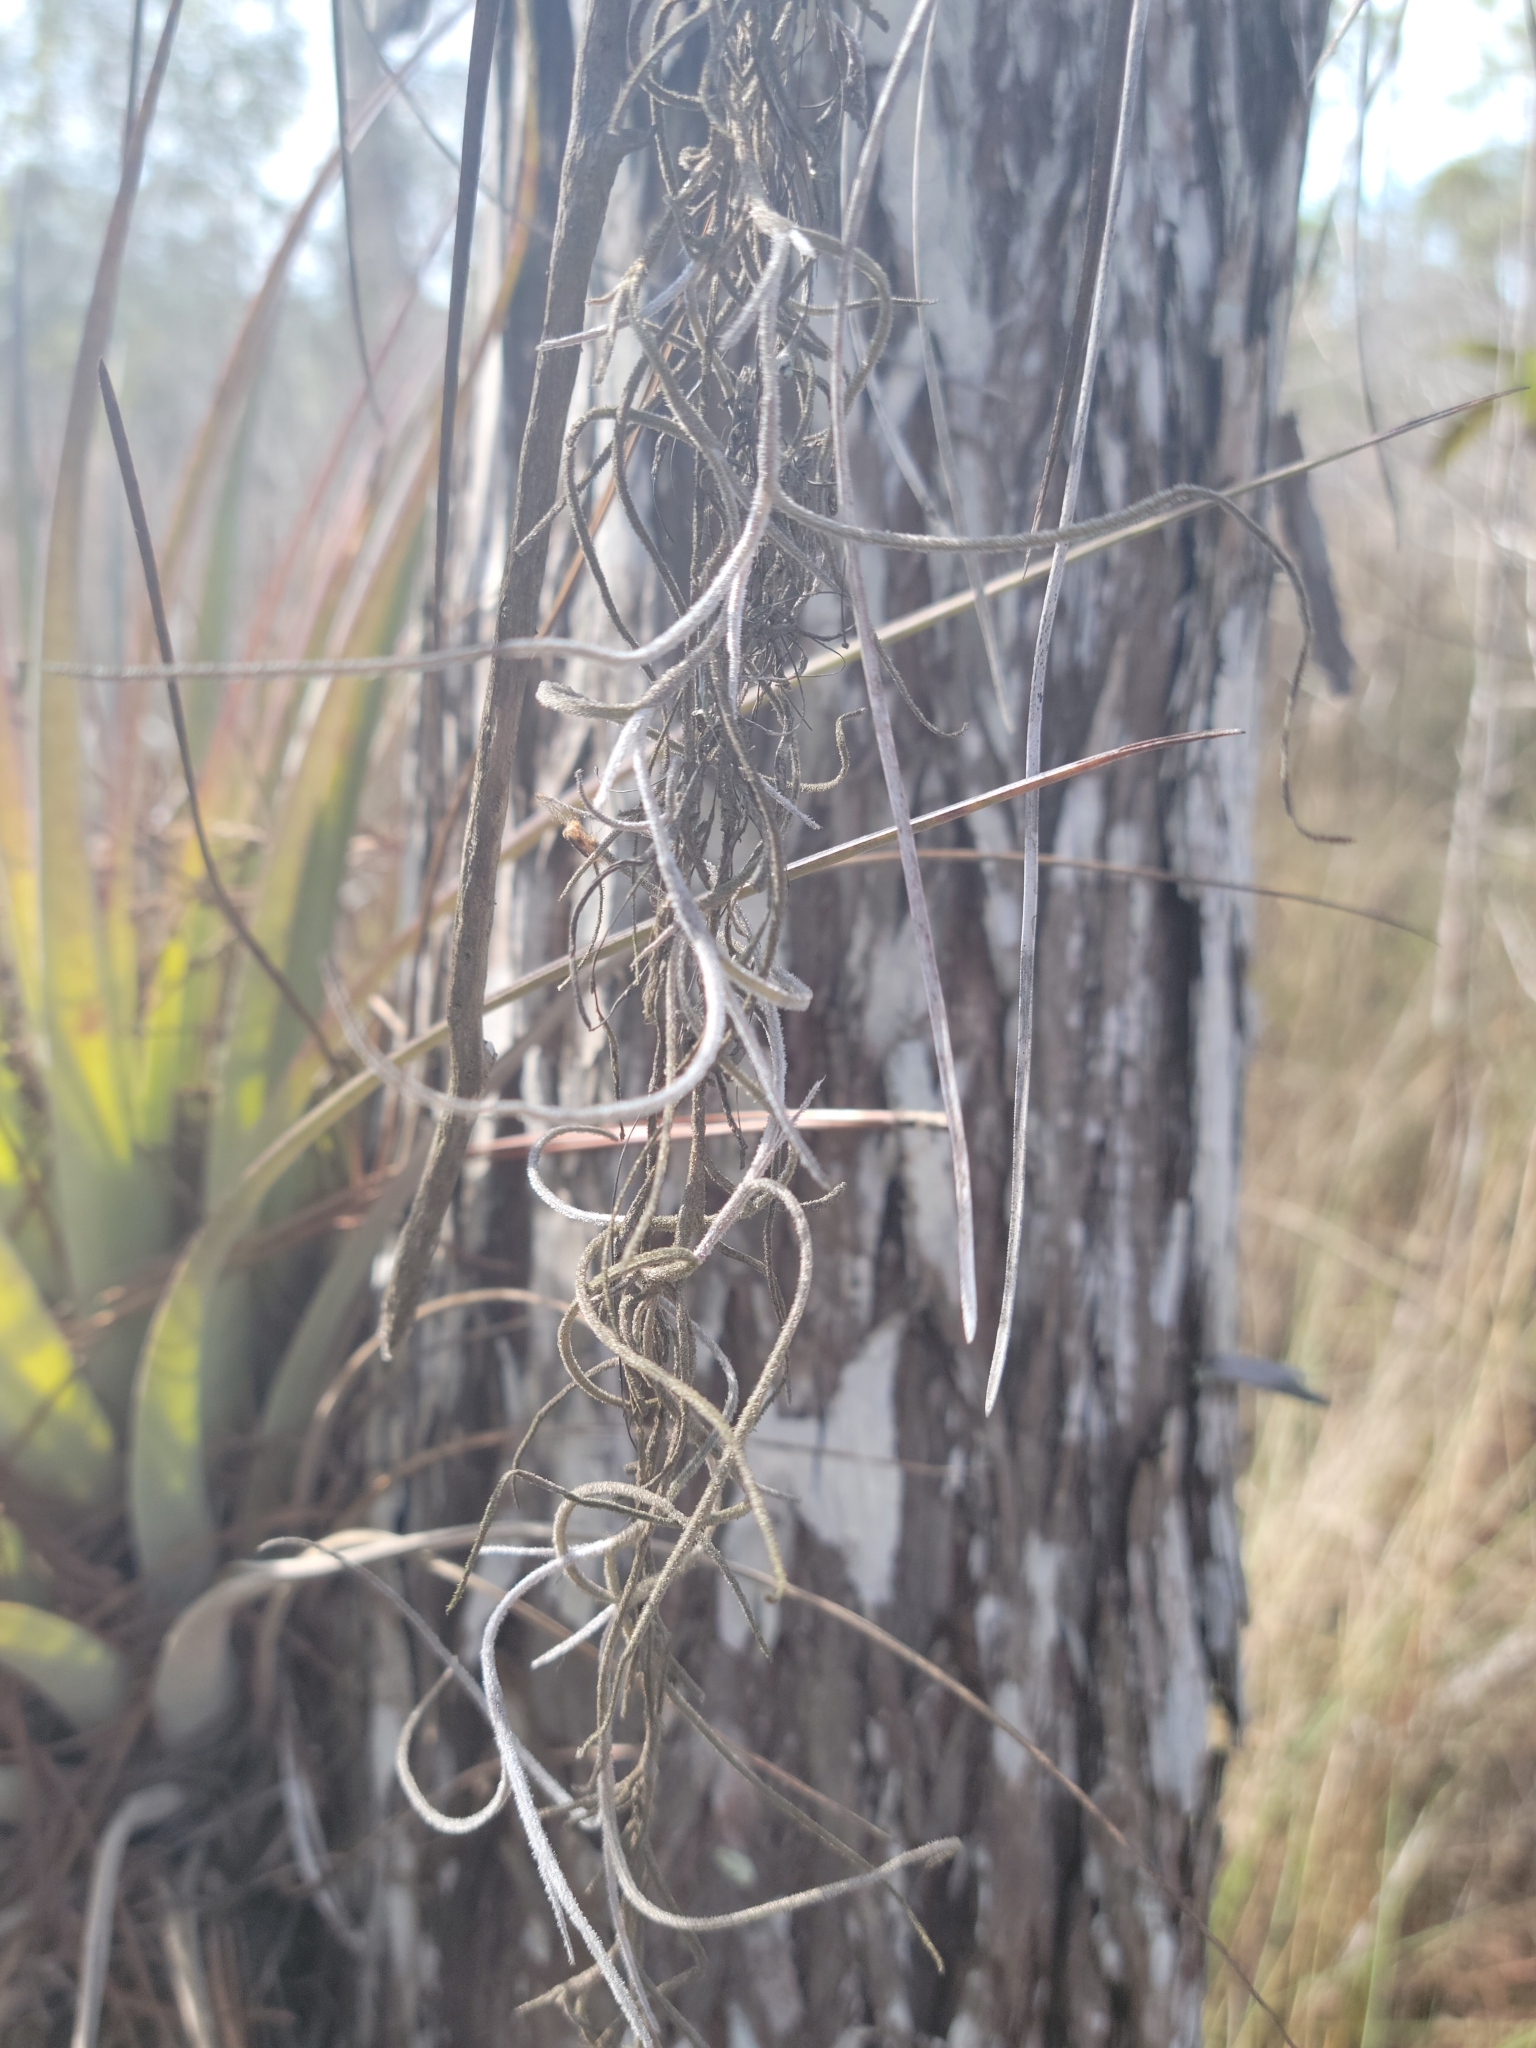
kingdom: Plantae
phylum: Tracheophyta
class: Liliopsida
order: Poales
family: Bromeliaceae
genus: Tillandsia
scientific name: Tillandsia usneoides
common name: Spanish moss
